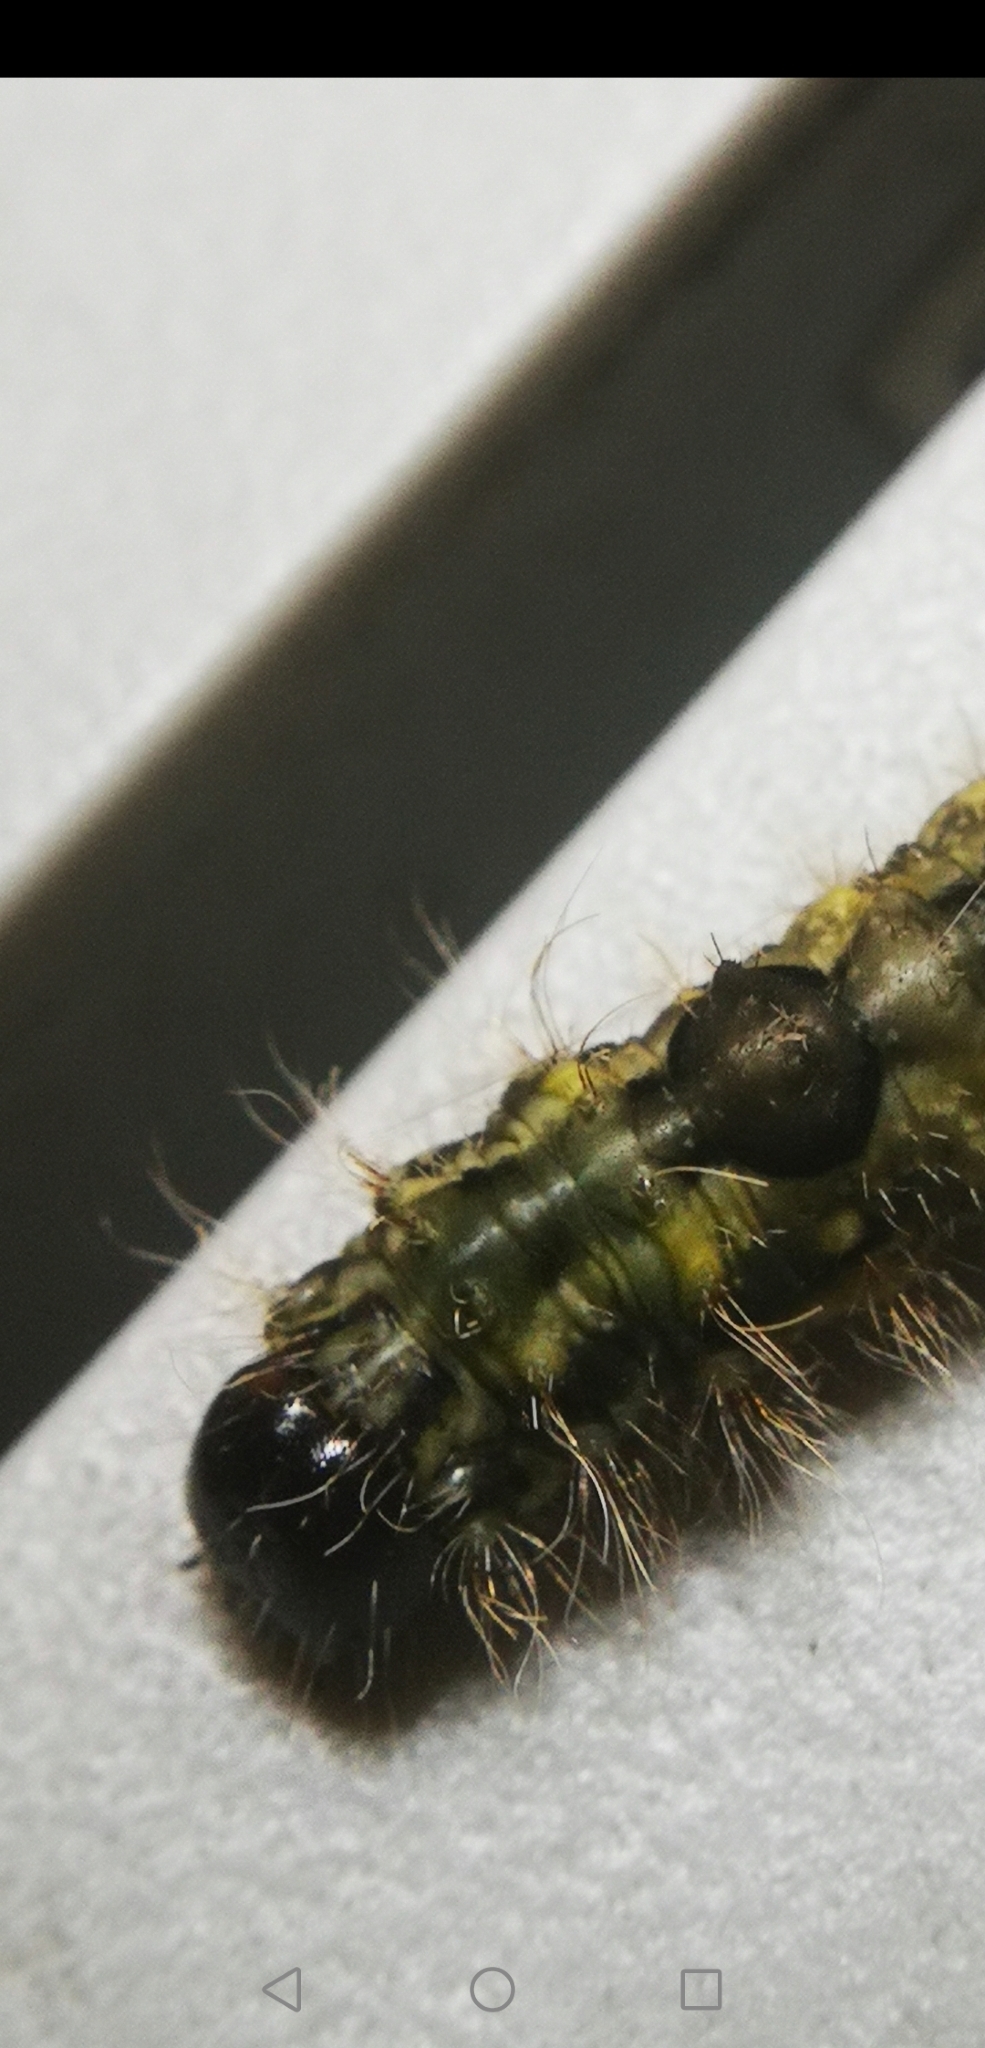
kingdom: Animalia
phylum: Arthropoda
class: Insecta
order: Lepidoptera
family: Noctuidae
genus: Acronicta
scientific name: Acronicta morula
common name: Ochre dagger
